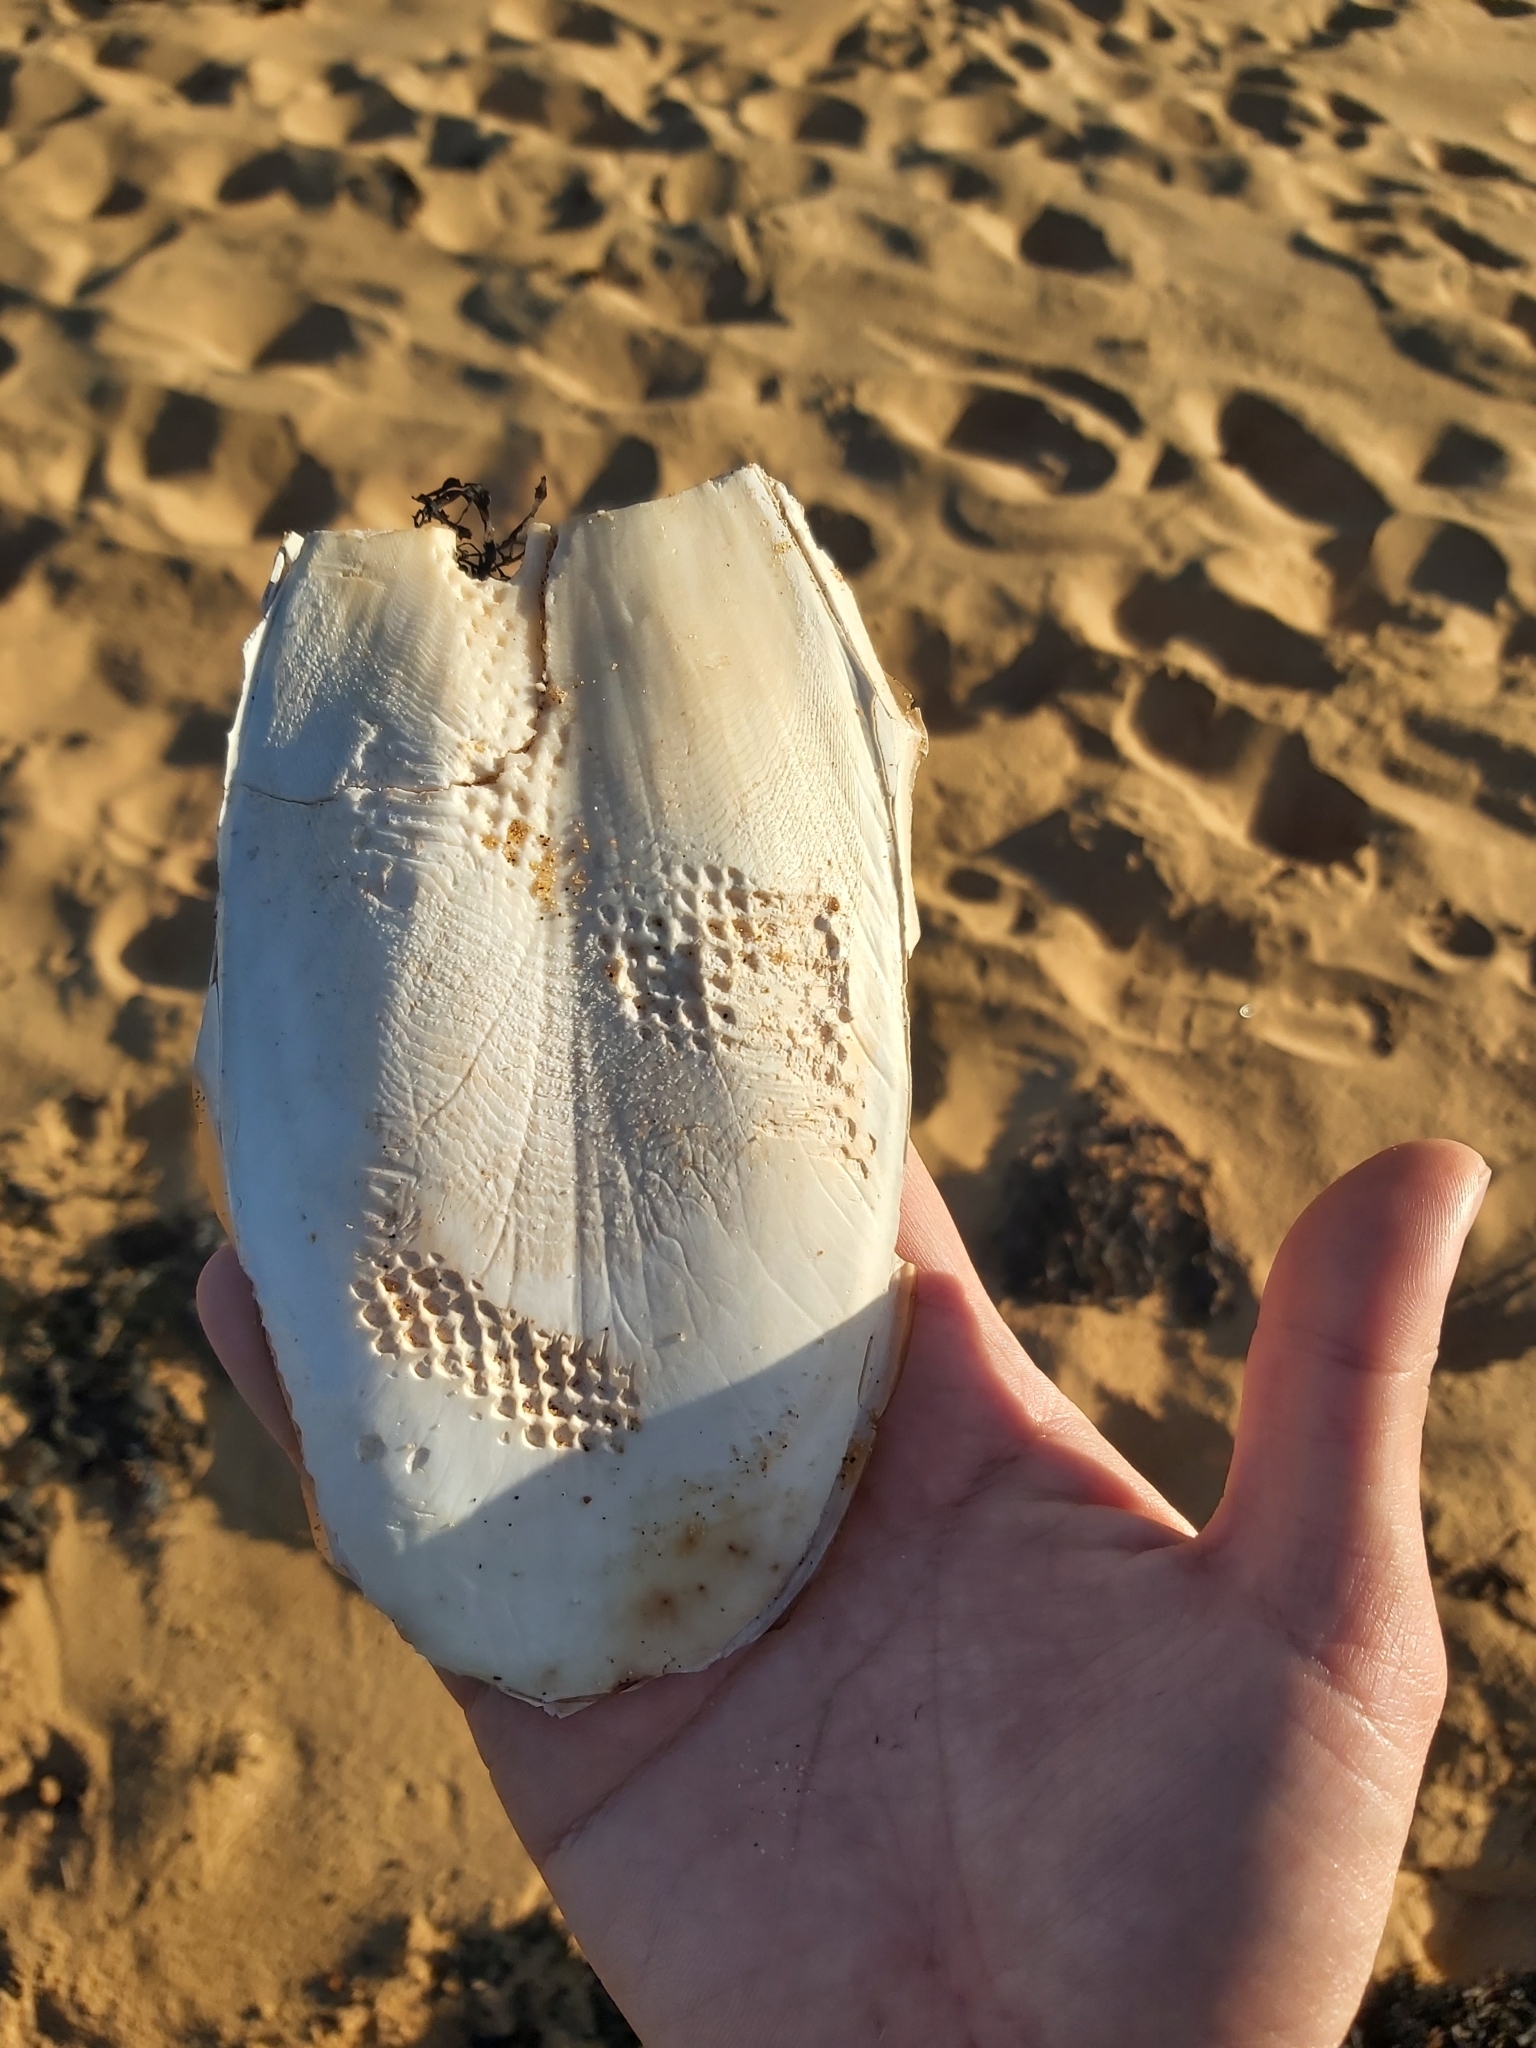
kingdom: Animalia
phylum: Mollusca
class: Cephalopoda
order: Sepiida
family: Sepiidae
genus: Ascarosepion
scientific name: Ascarosepion apama
